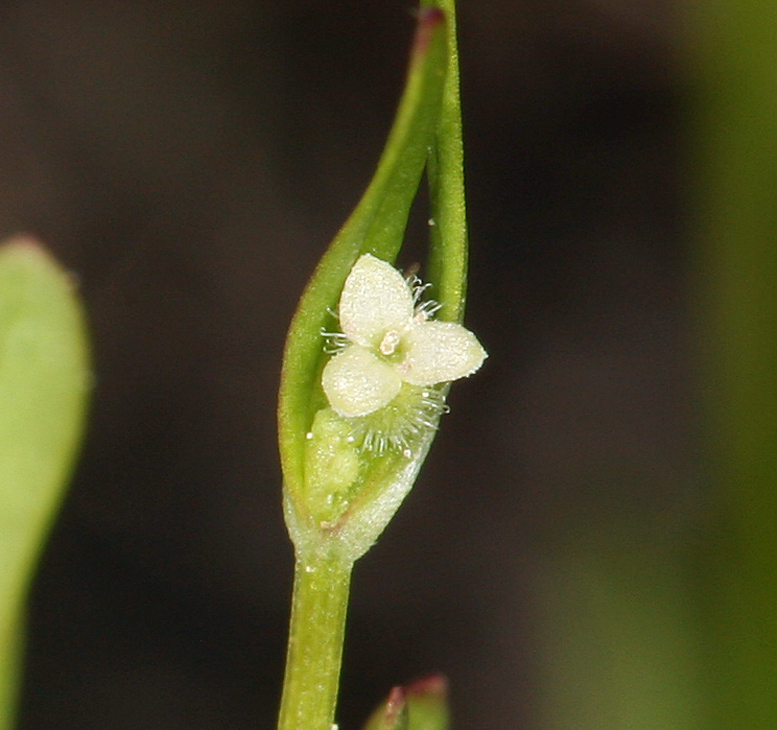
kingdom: Plantae
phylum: Tracheophyta
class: Magnoliopsida
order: Gentianales
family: Rubiaceae
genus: Galium
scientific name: Galium bifolium
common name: Low mountain bedstraw
